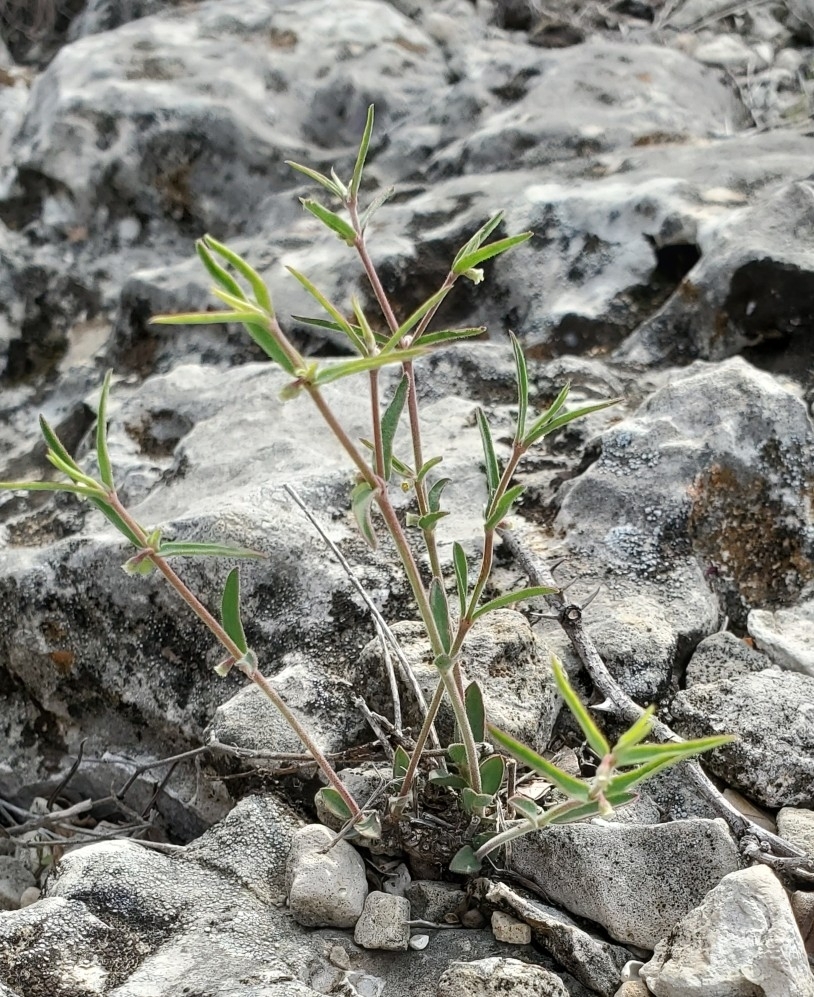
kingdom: Plantae
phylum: Tracheophyta
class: Magnoliopsida
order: Malpighiales
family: Euphorbiaceae
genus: Euphorbia
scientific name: Euphorbia angusta
